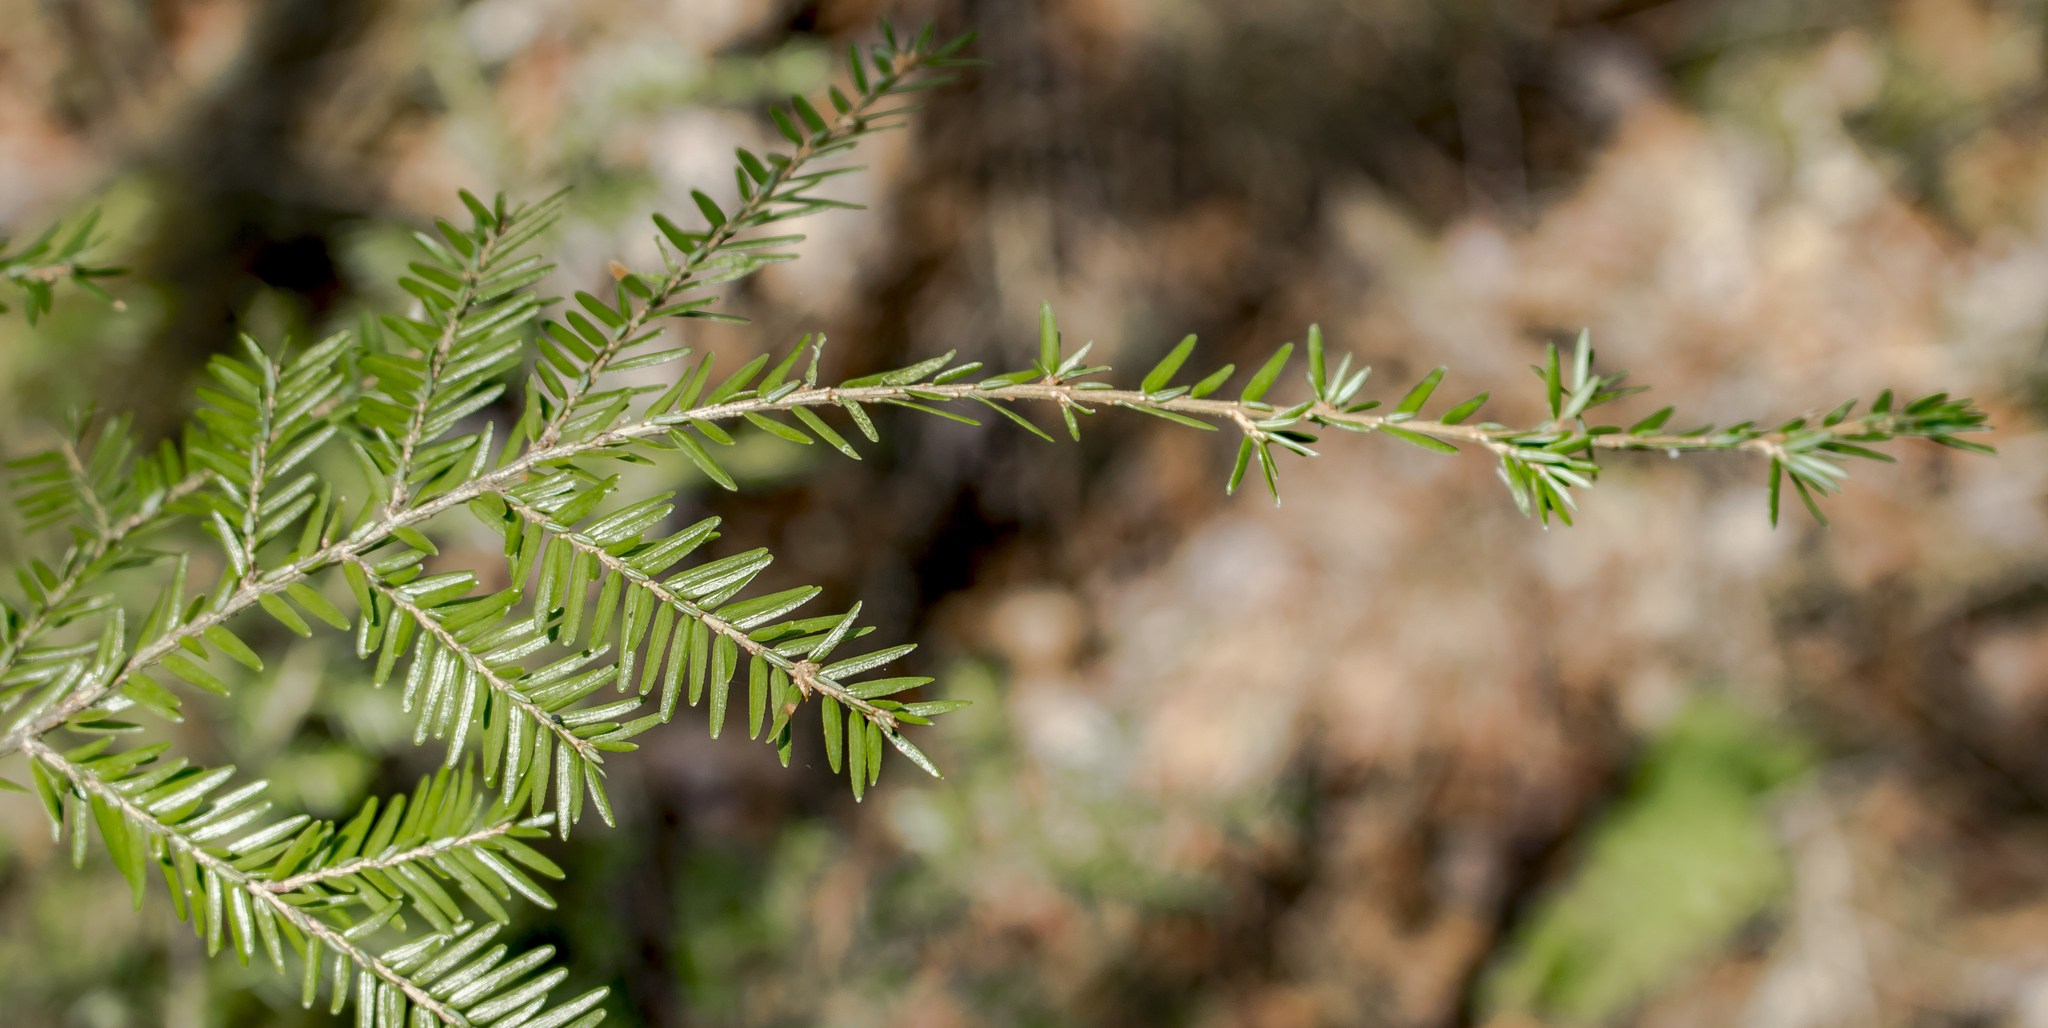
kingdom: Plantae
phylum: Tracheophyta
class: Pinopsida
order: Pinales
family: Pinaceae
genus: Tsuga
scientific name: Tsuga canadensis
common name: Eastern hemlock
